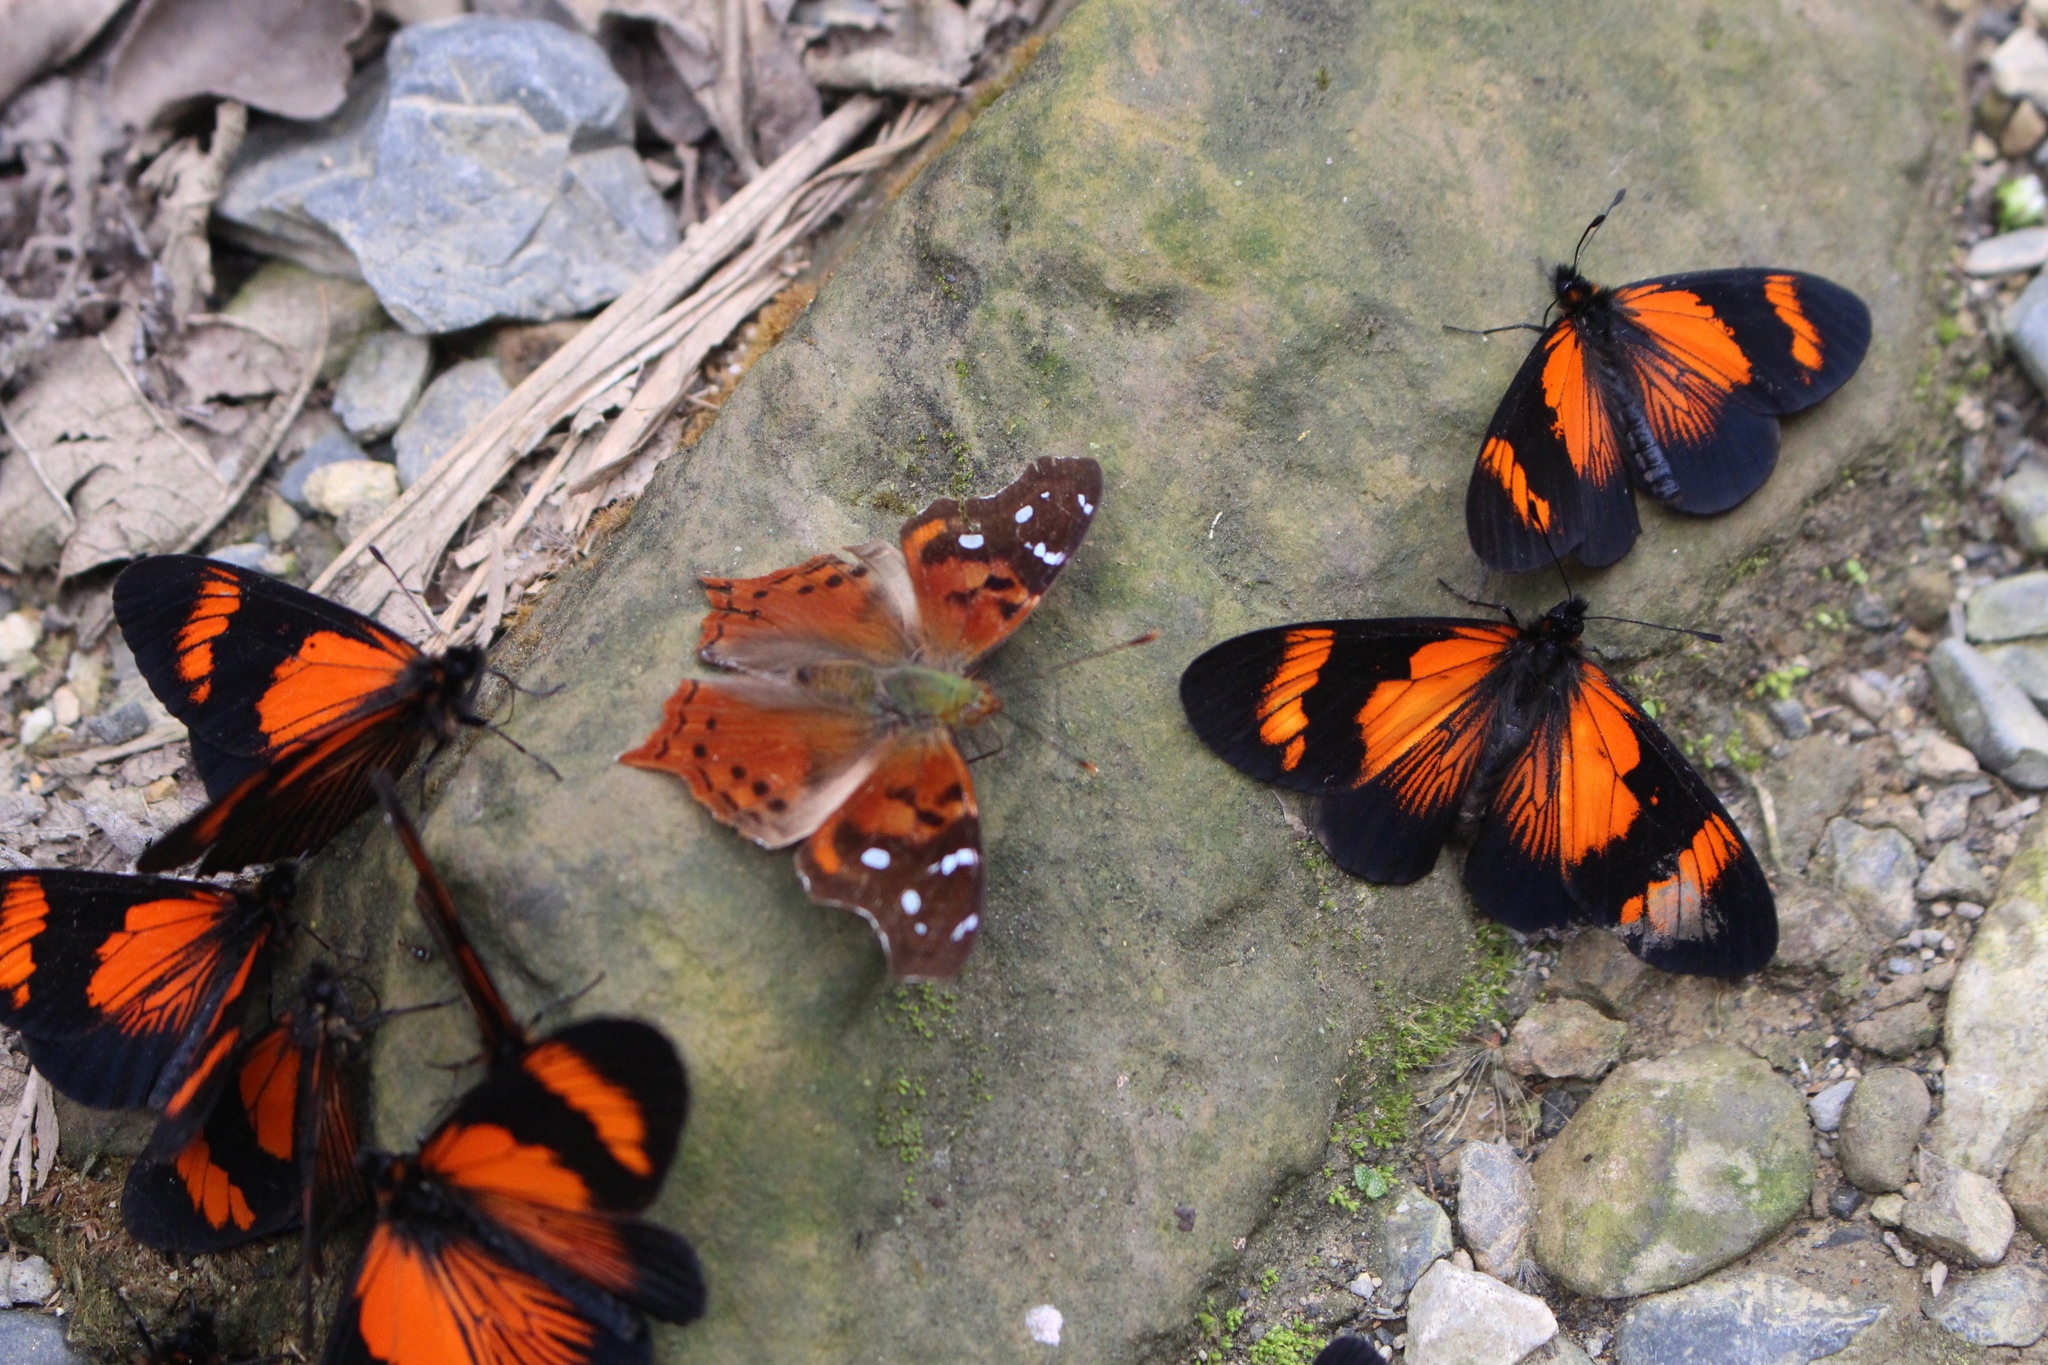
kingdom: Animalia
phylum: Arthropoda
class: Insecta
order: Lepidoptera
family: Nymphalidae
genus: Actinote
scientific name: Actinote negra
